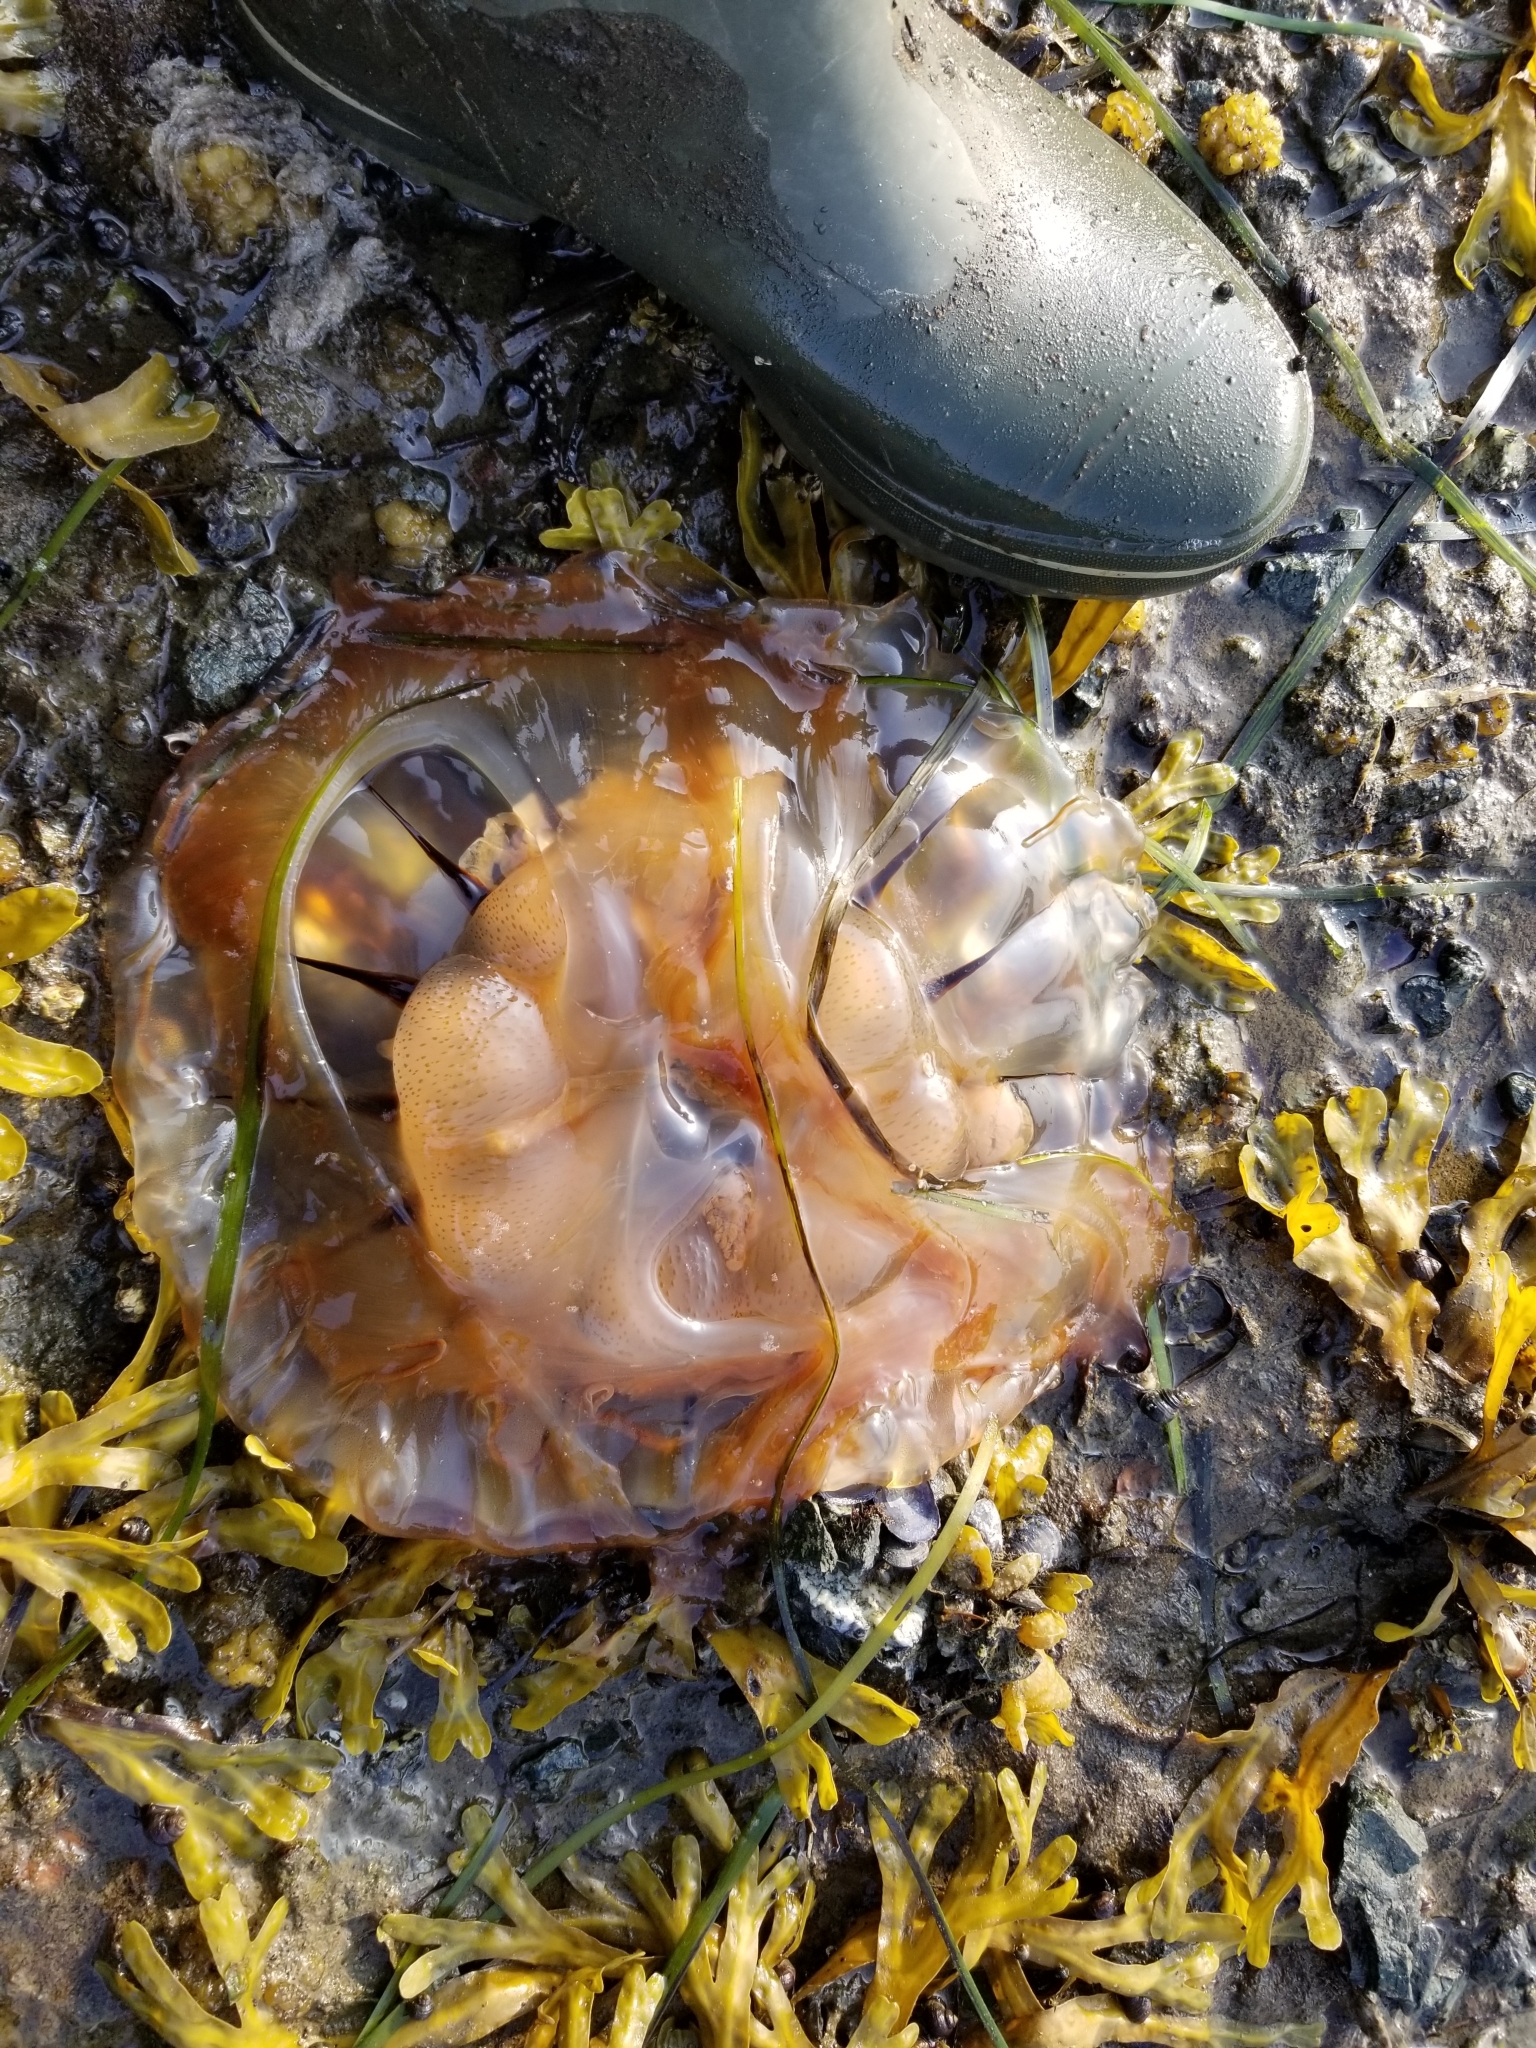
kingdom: Animalia
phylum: Cnidaria
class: Scyphozoa
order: Semaeostomeae
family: Pelagiidae
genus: Chrysaora
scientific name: Chrysaora melanaster
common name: Northern sea nettle
